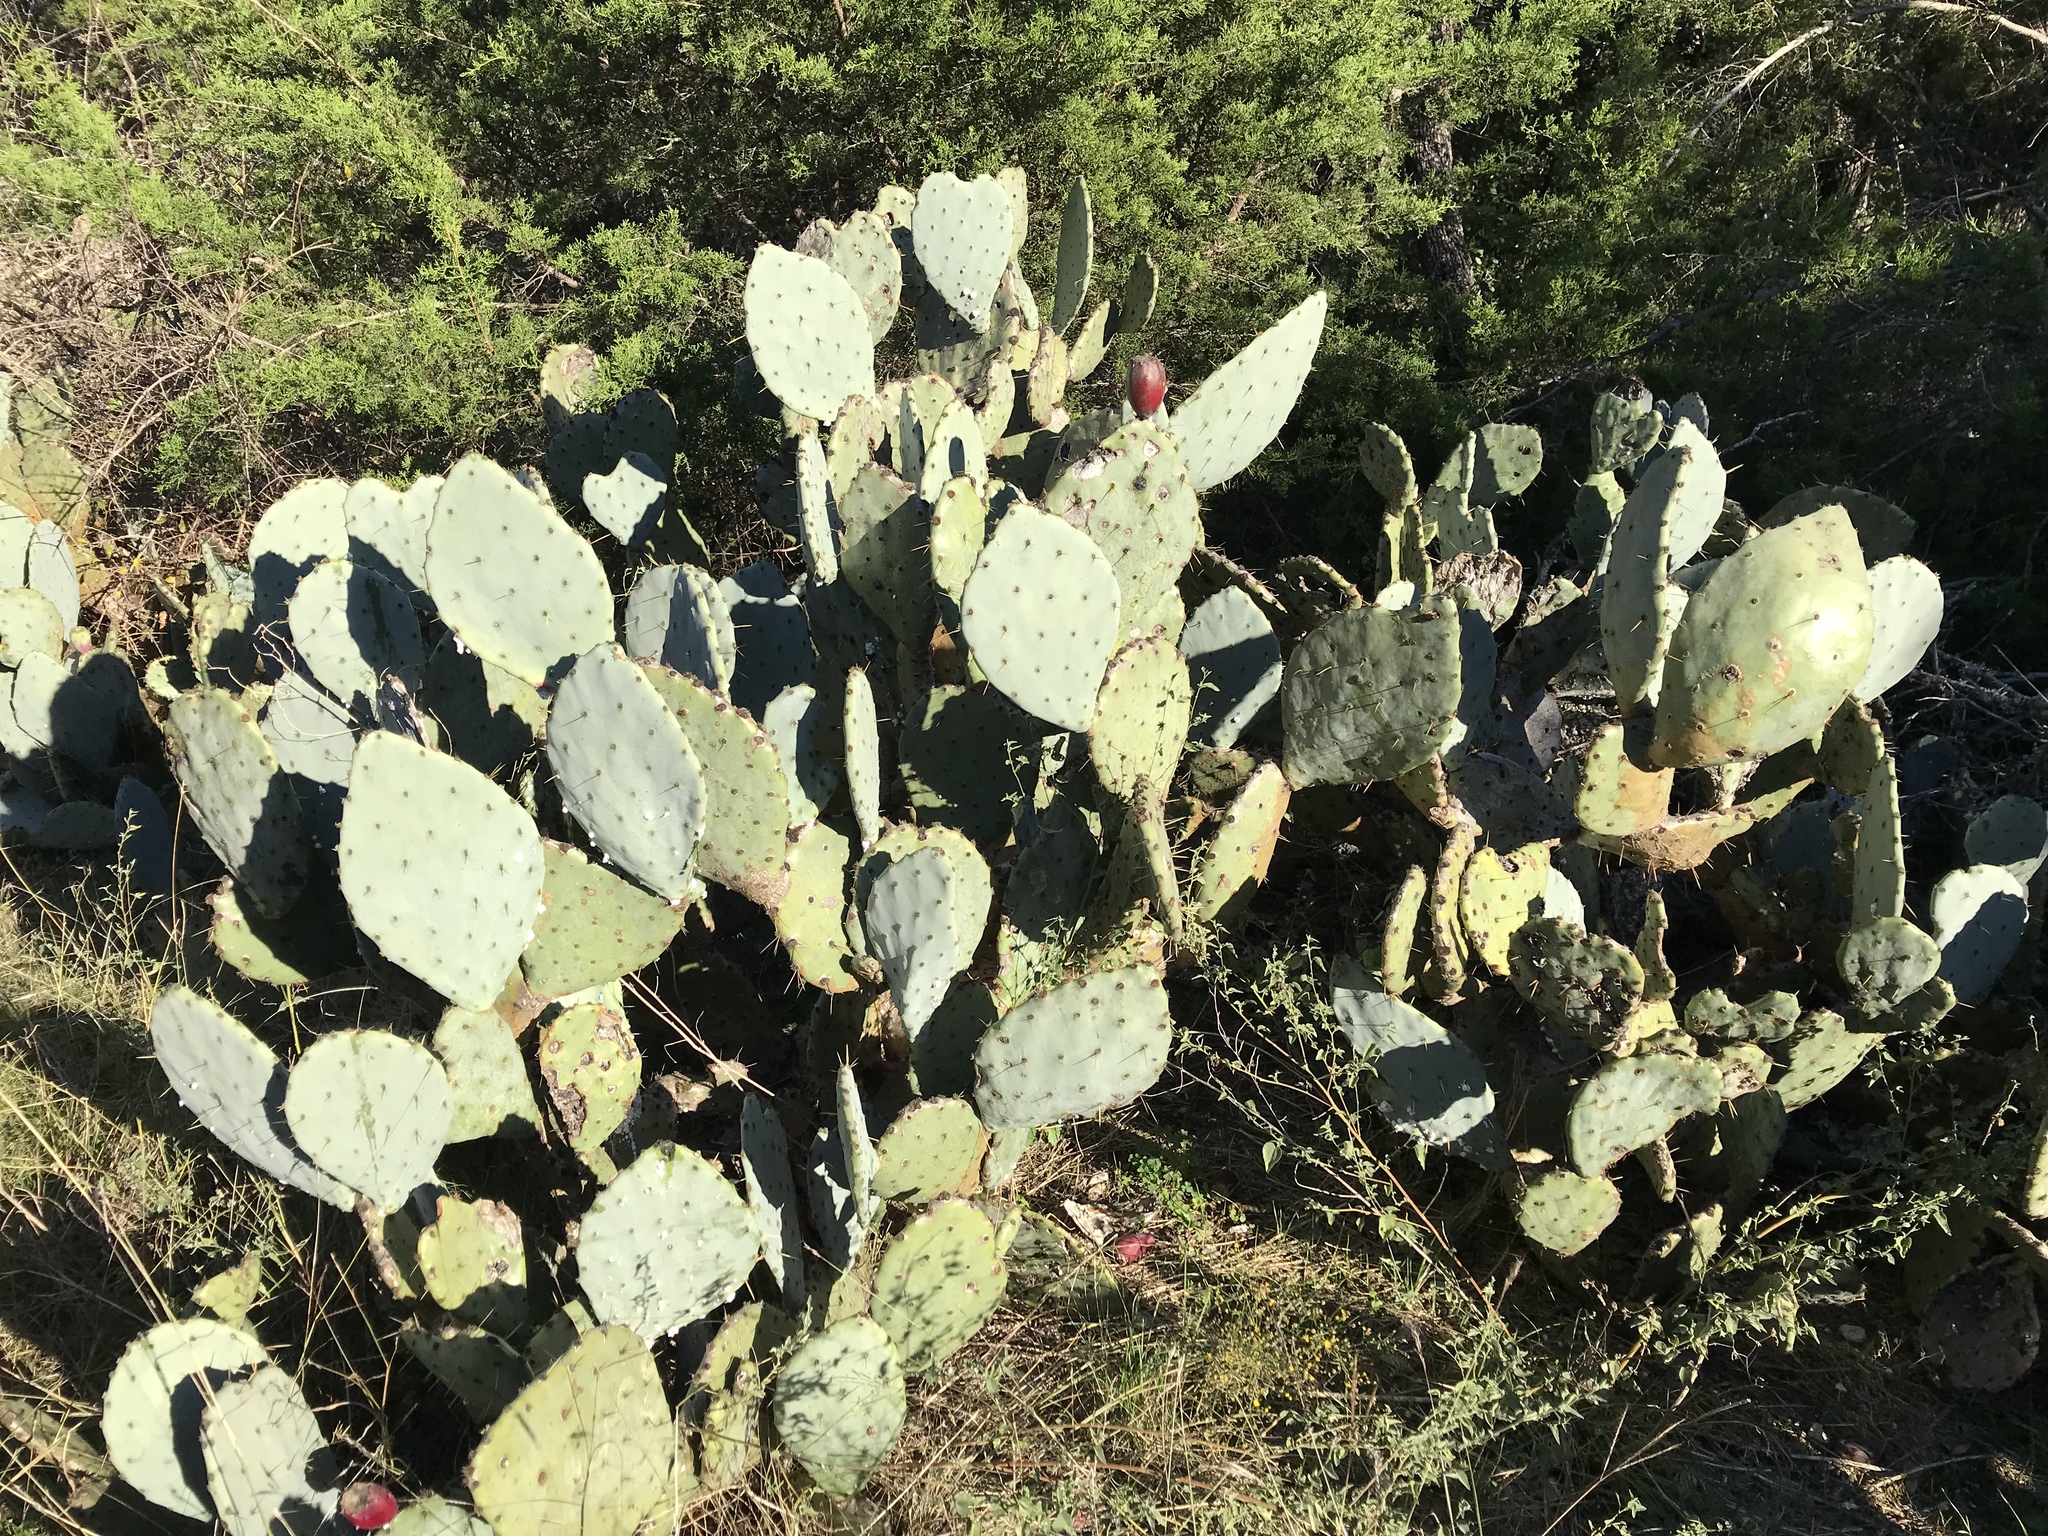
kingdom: Plantae
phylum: Tracheophyta
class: Magnoliopsida
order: Caryophyllales
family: Cactaceae
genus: Opuntia
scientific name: Opuntia engelmannii
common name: Cactus-apple
